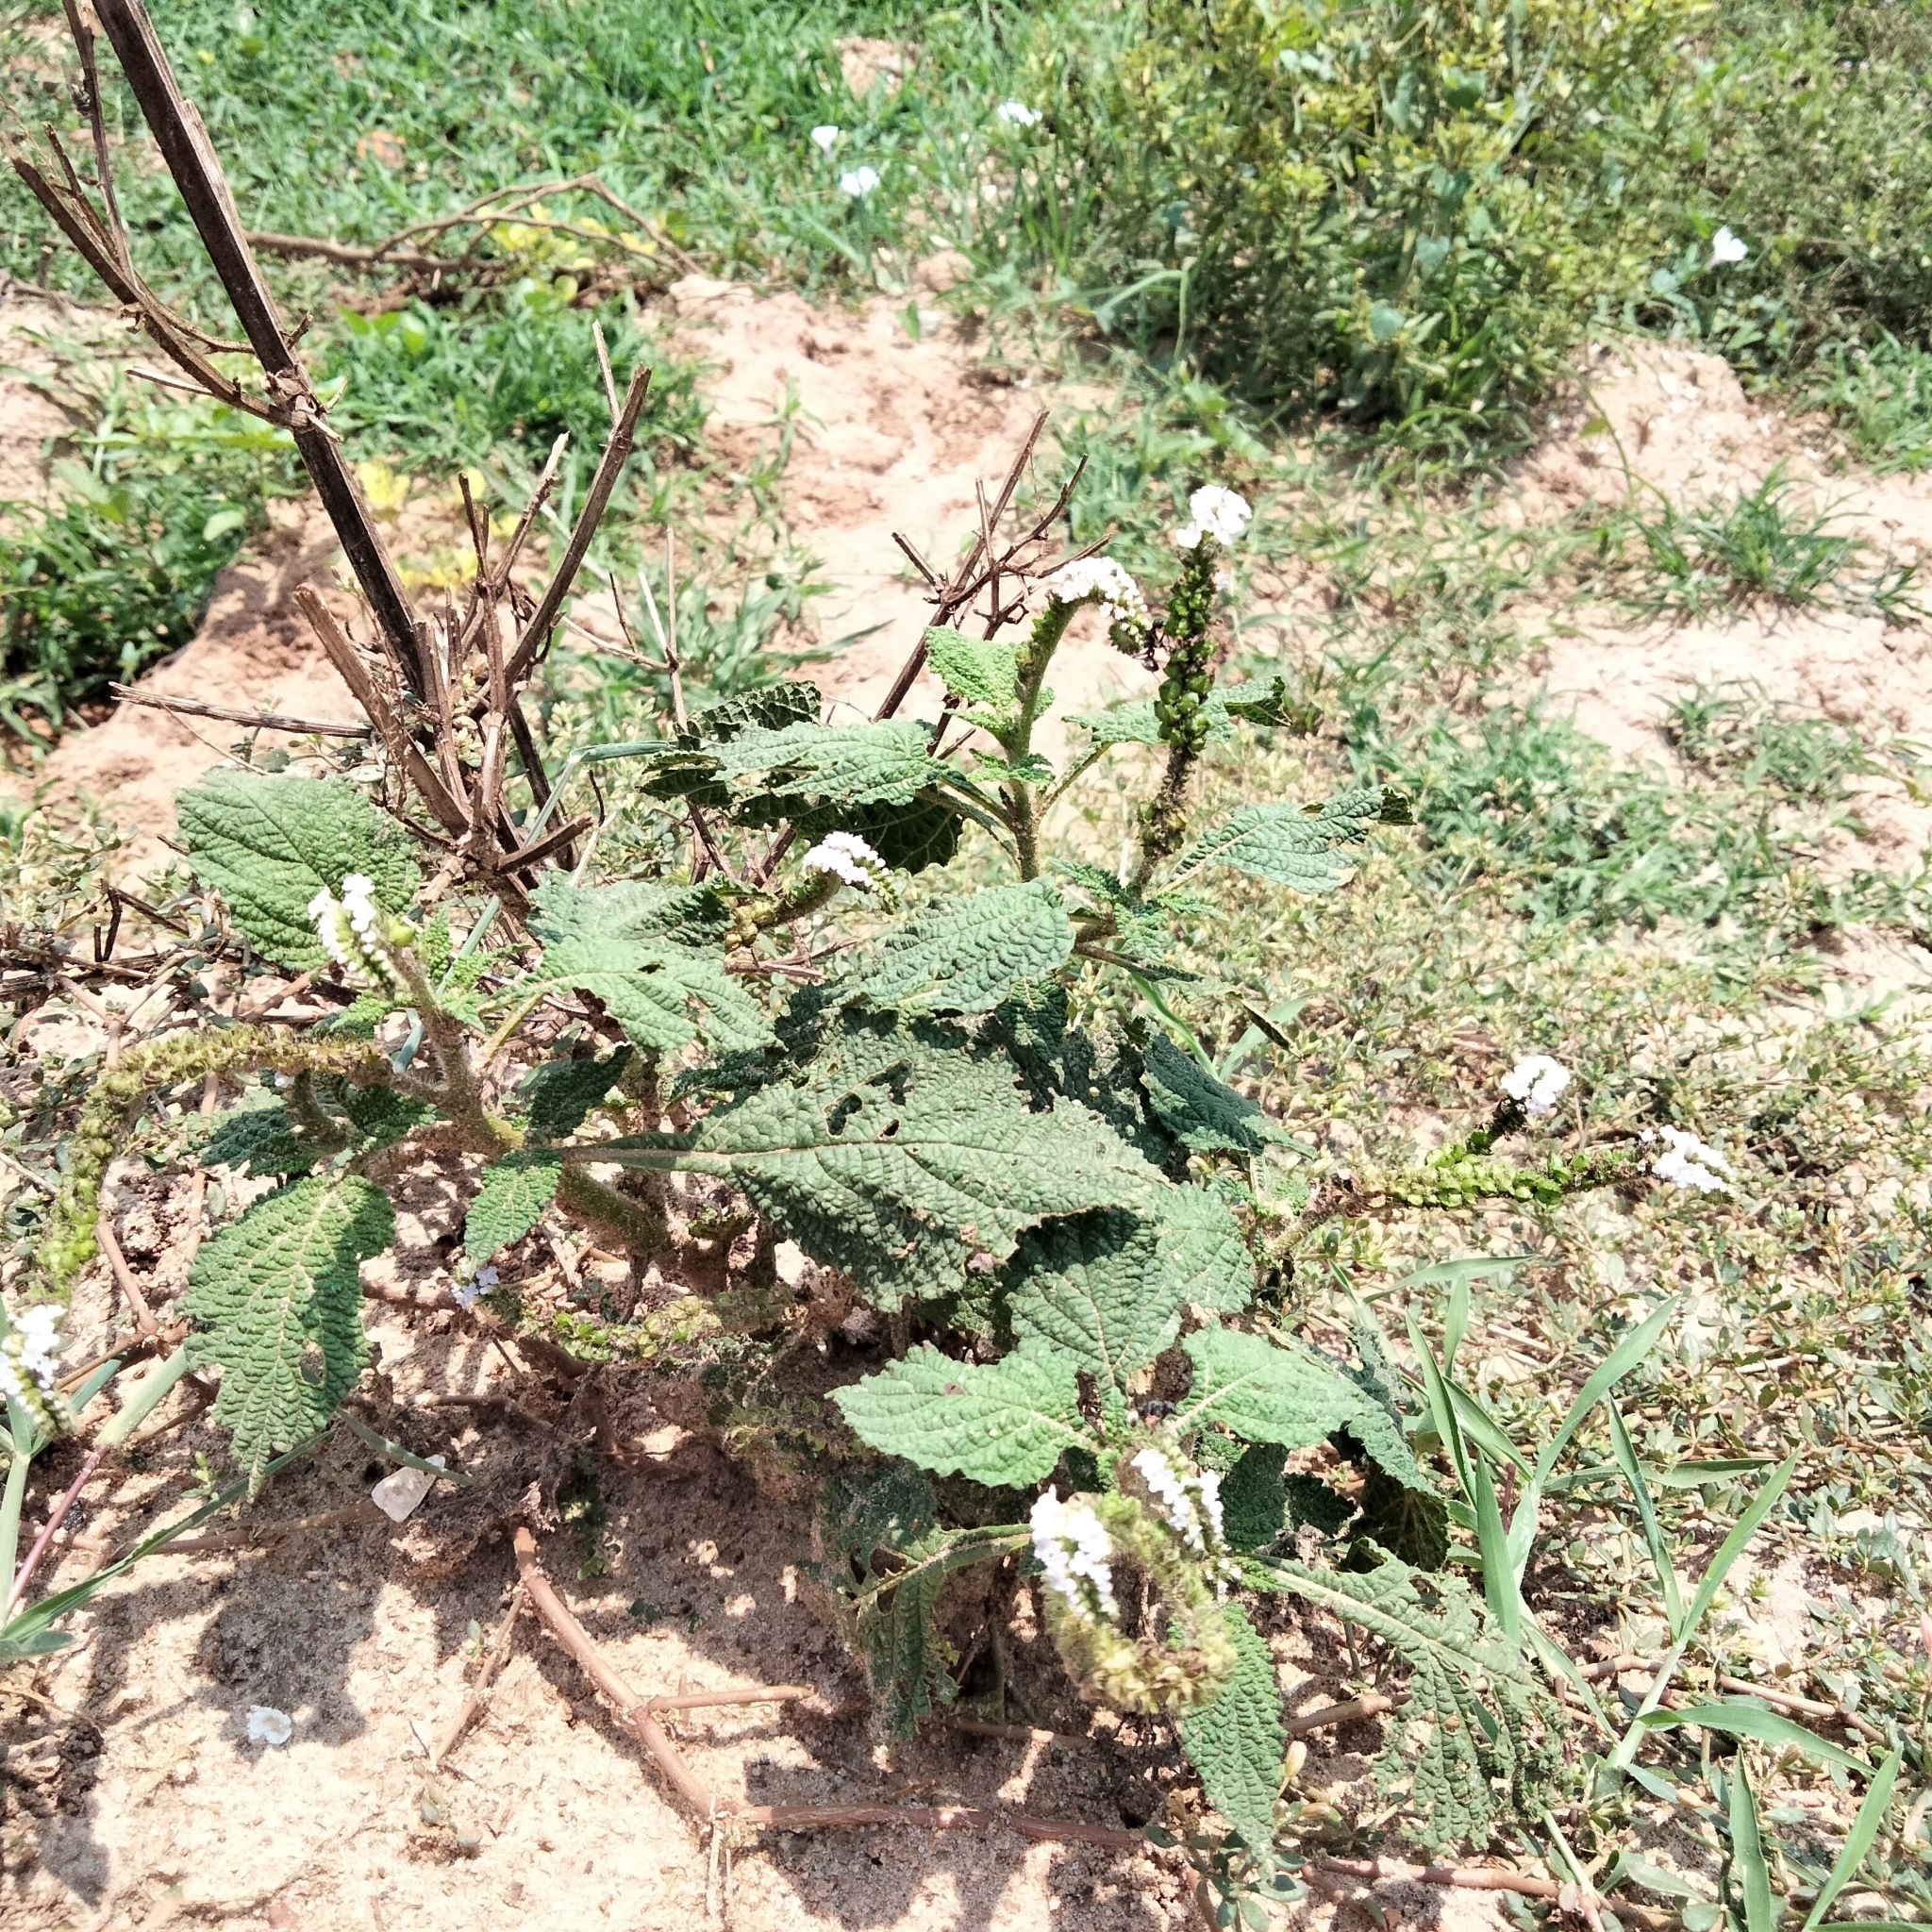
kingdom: Plantae
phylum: Tracheophyta
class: Magnoliopsida
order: Boraginales
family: Heliotropiaceae
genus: Heliotropium
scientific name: Heliotropium indicum
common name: Indian heliotrope
